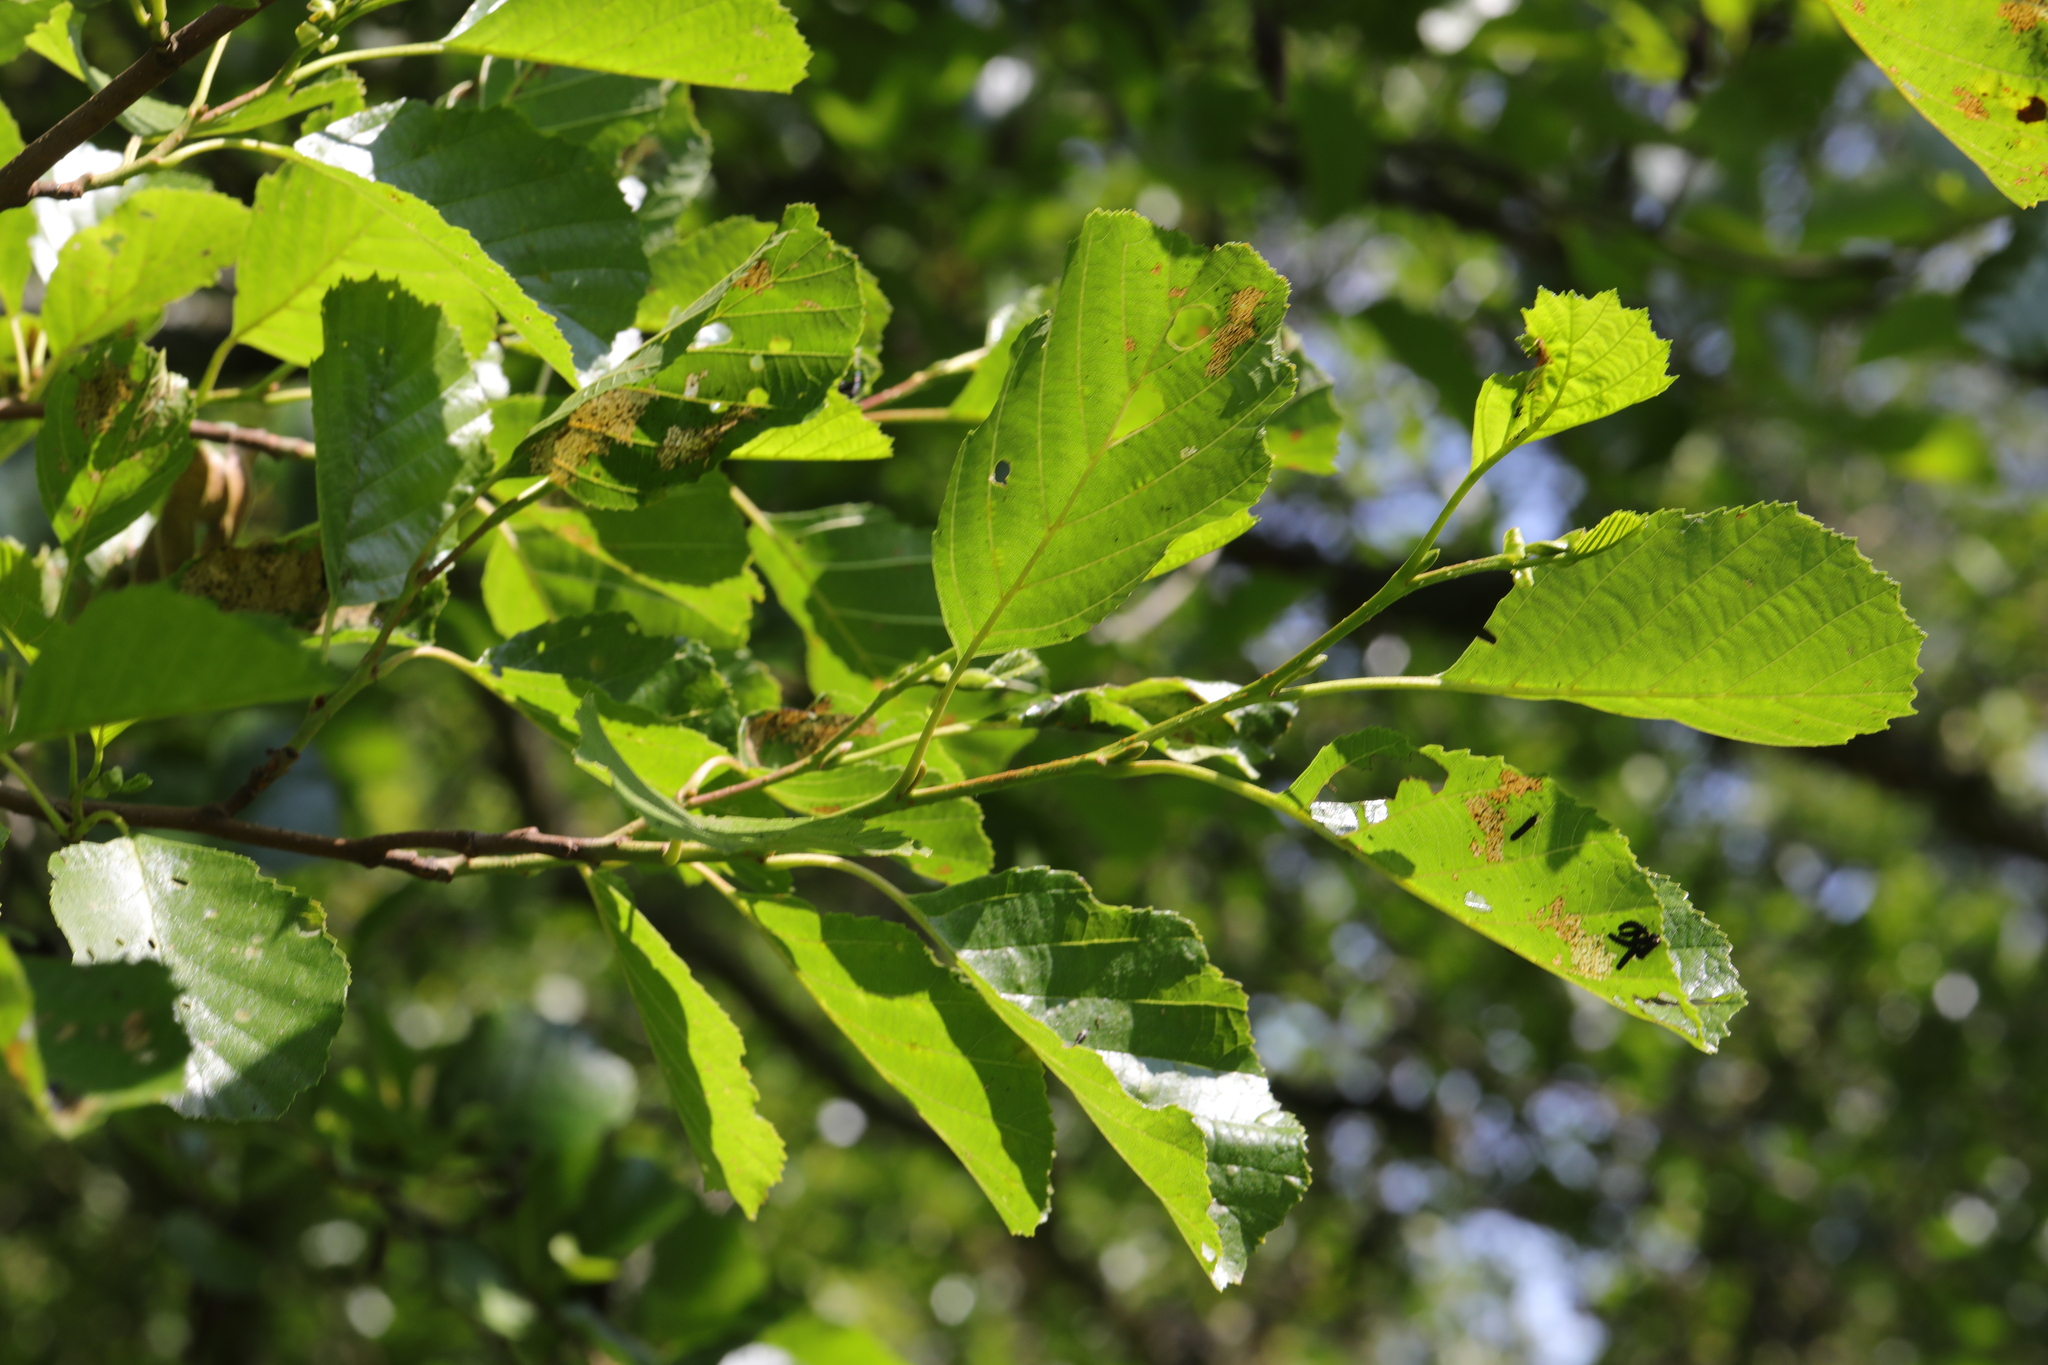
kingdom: Plantae
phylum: Tracheophyta
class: Magnoliopsida
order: Fagales
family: Betulaceae
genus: Alnus
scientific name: Alnus glutinosa
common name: Black alder
